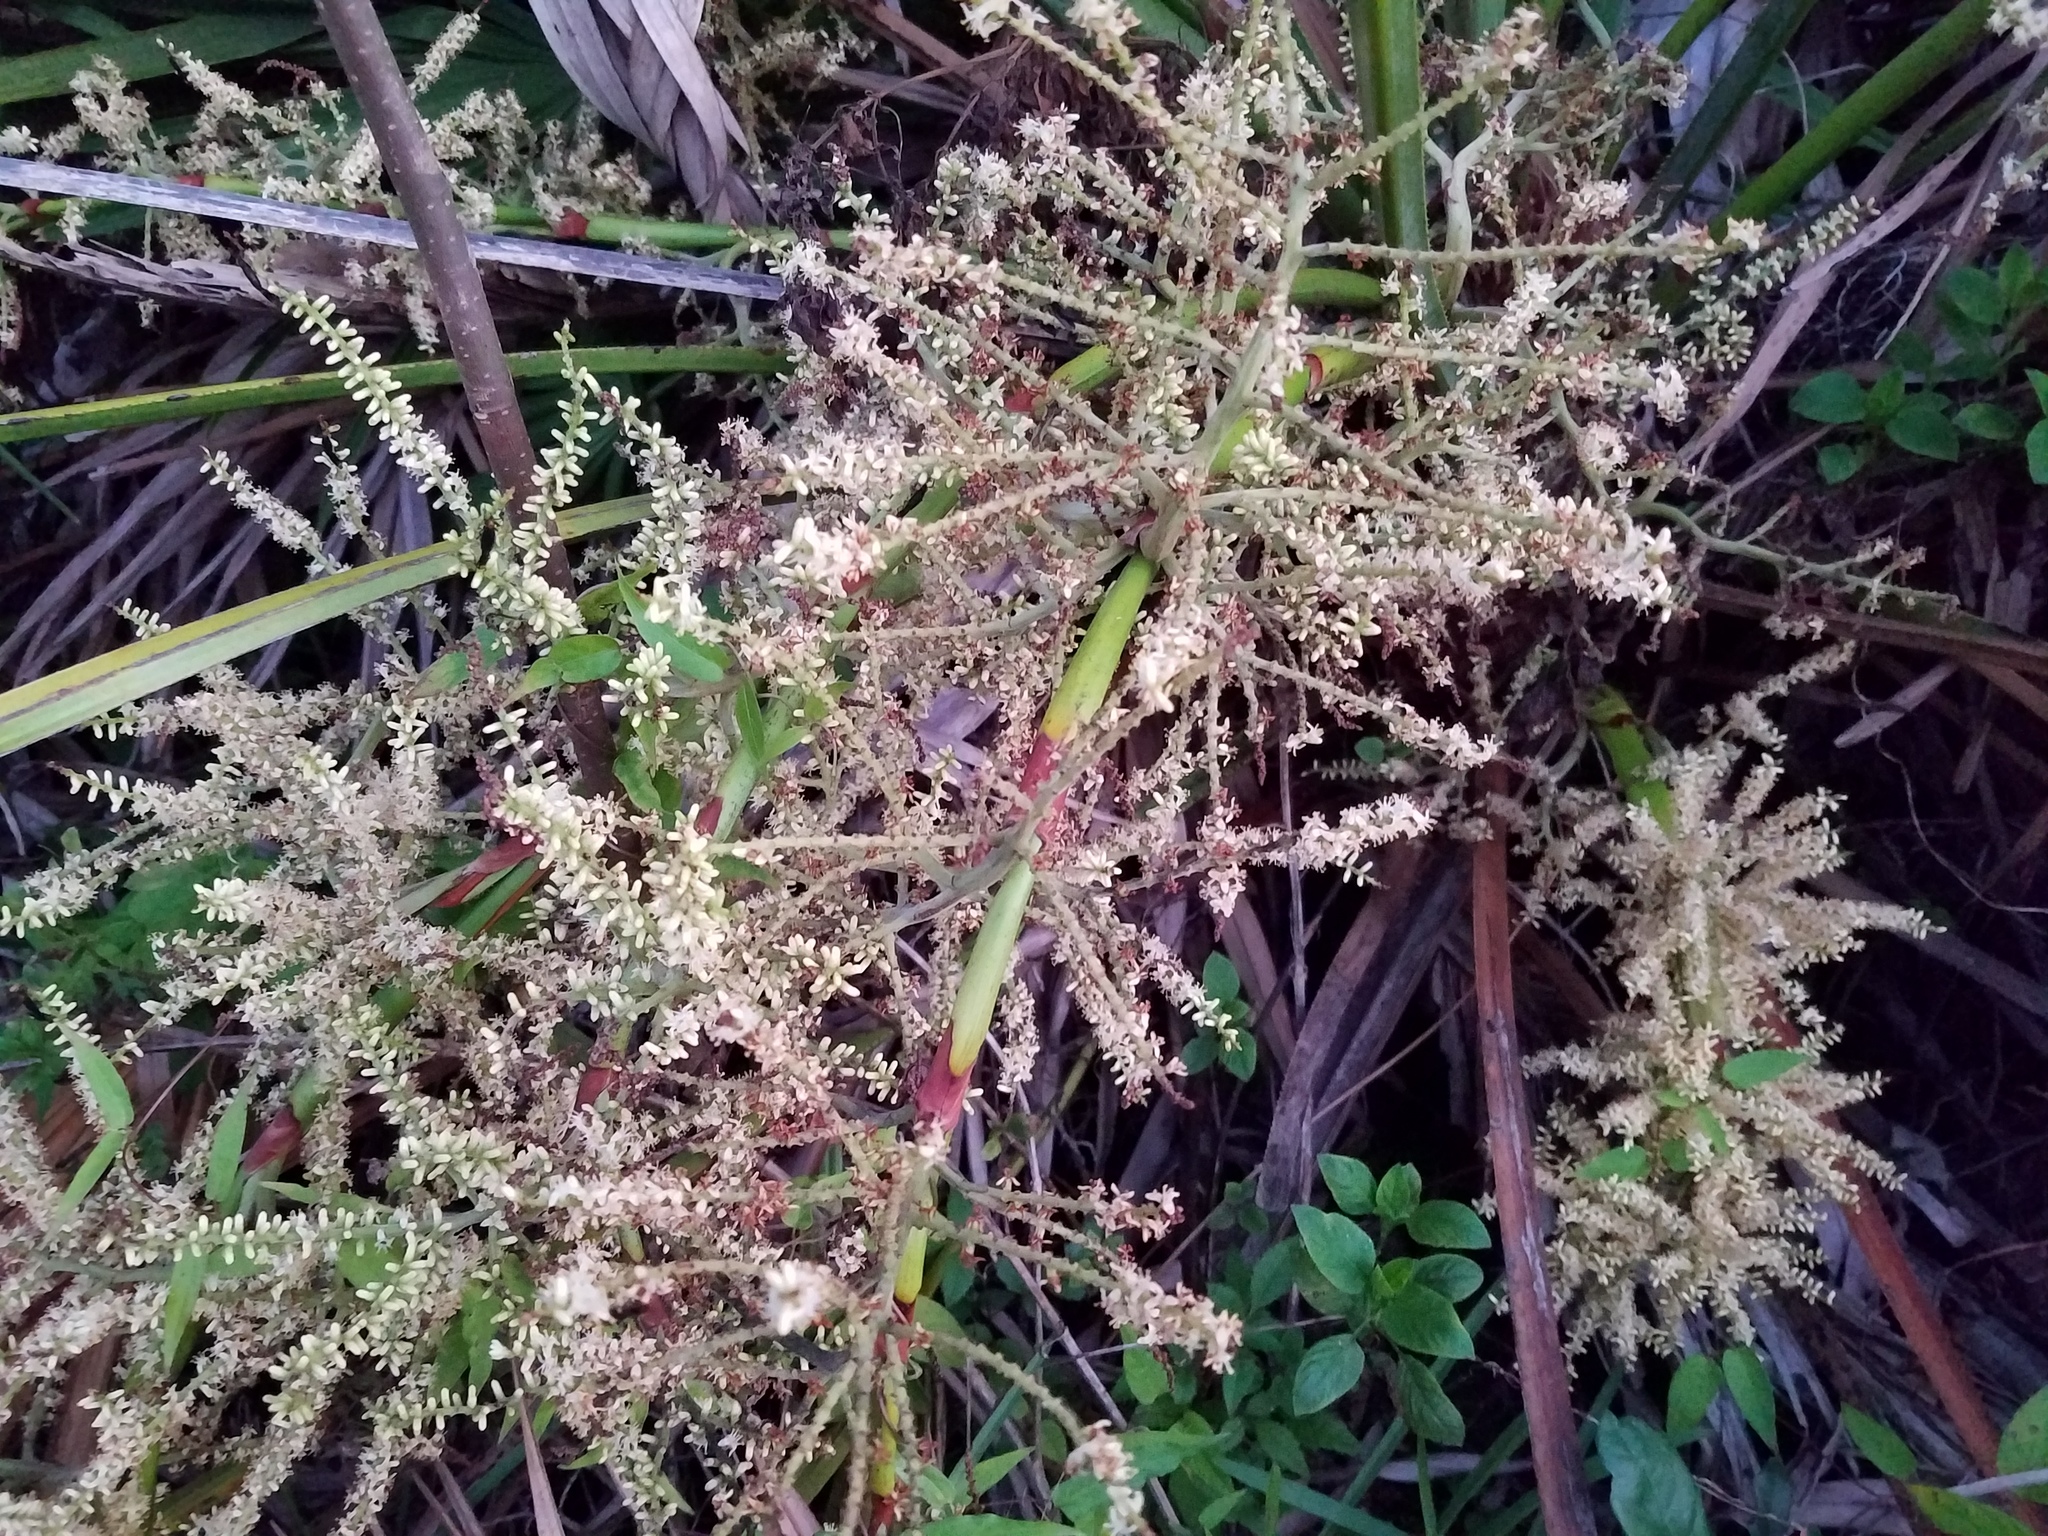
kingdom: Plantae
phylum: Tracheophyta
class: Liliopsida
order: Arecales
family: Arecaceae
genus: Serenoa
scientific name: Serenoa repens
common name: Saw-palmetto
